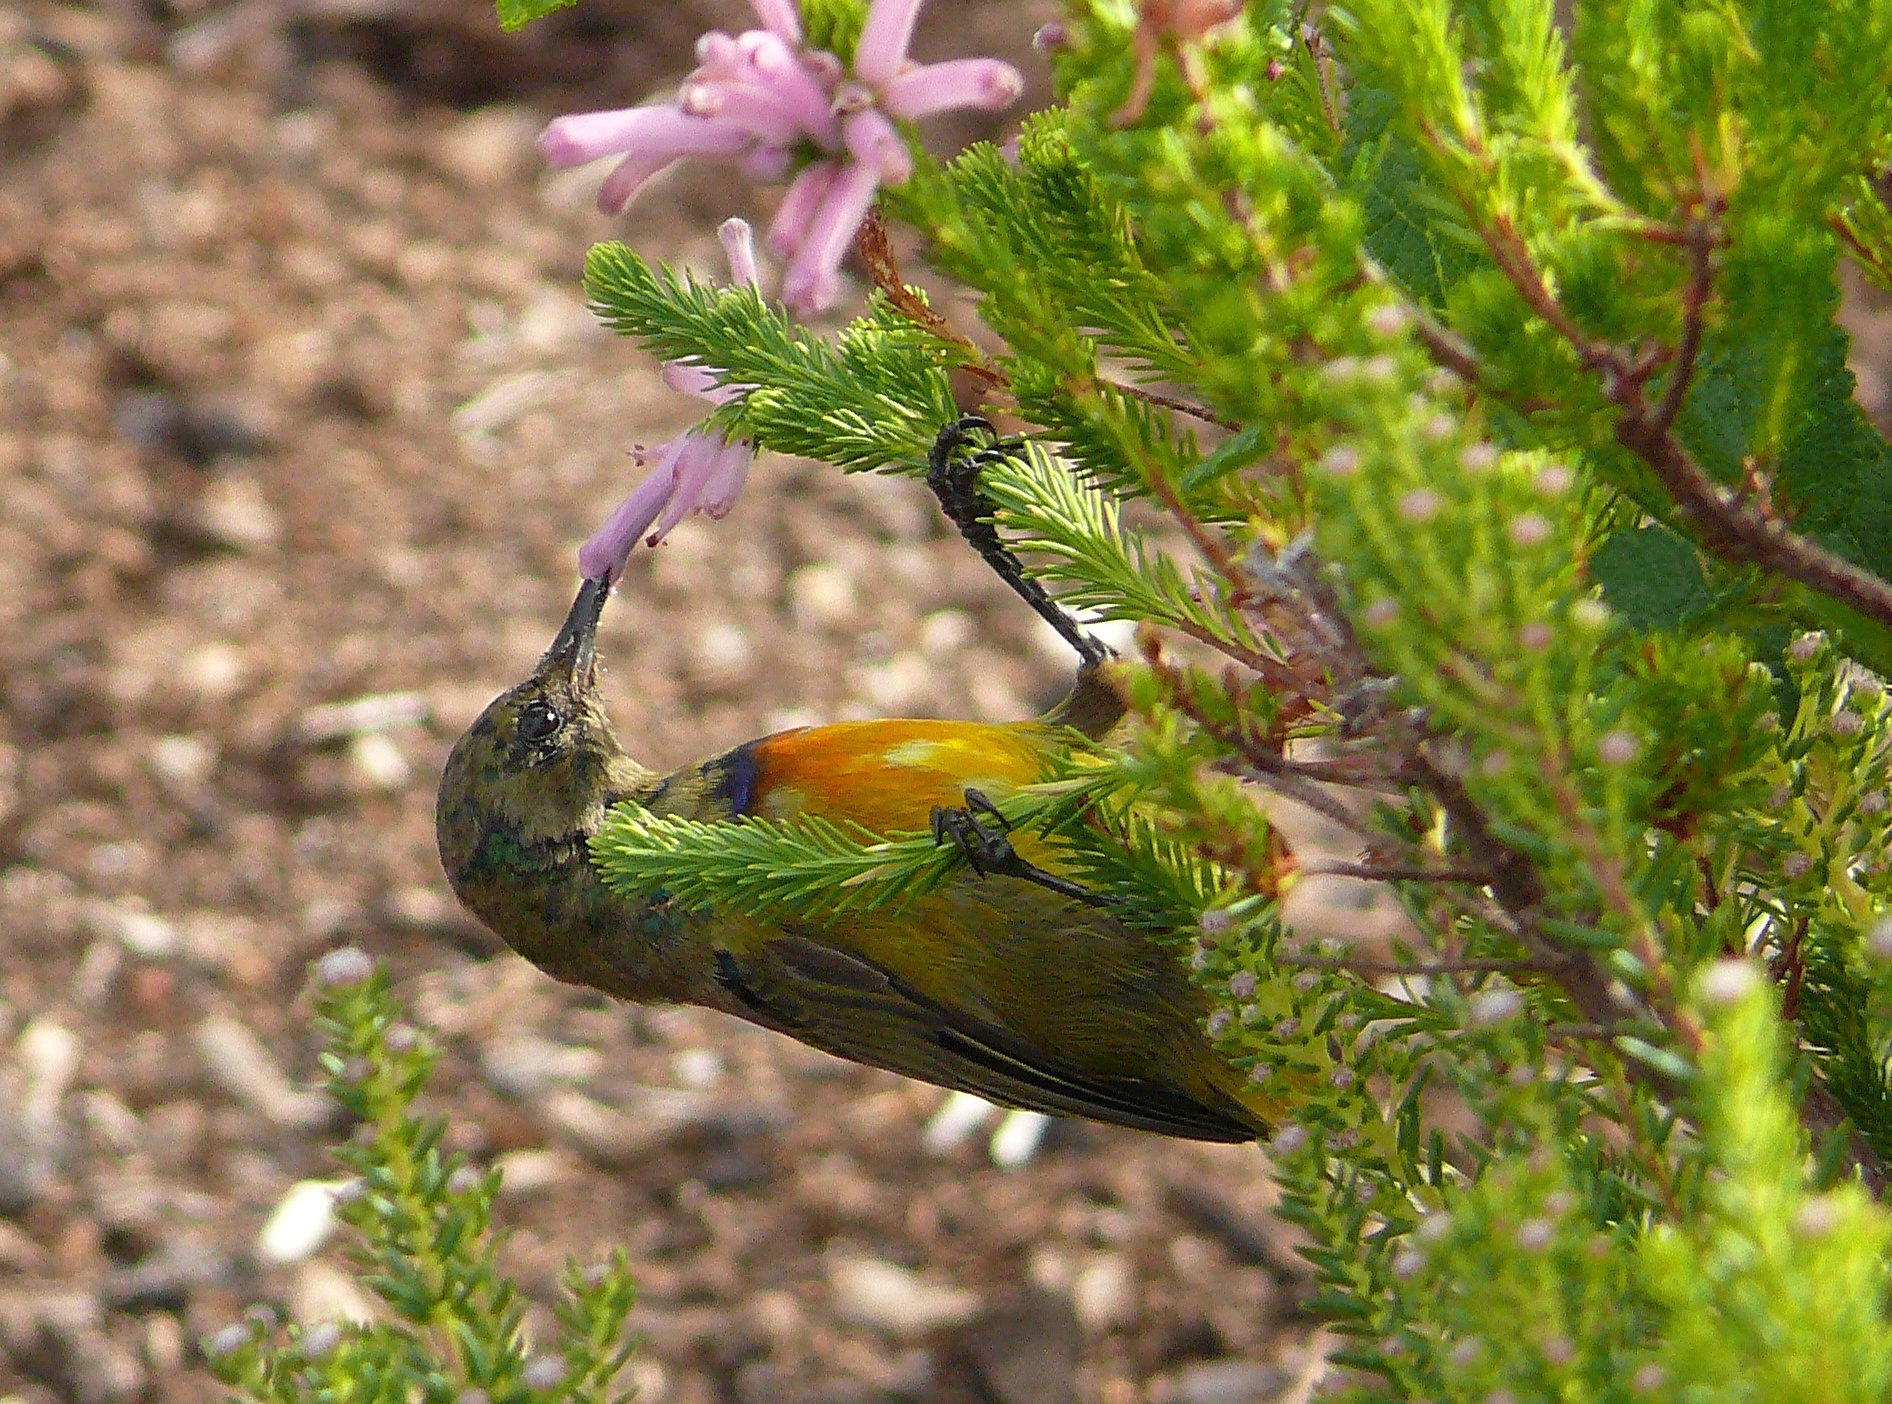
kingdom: Animalia
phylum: Chordata
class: Aves
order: Passeriformes
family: Nectariniidae
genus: Anthobaphes
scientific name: Anthobaphes violacea
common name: Orange-breasted sunbird
